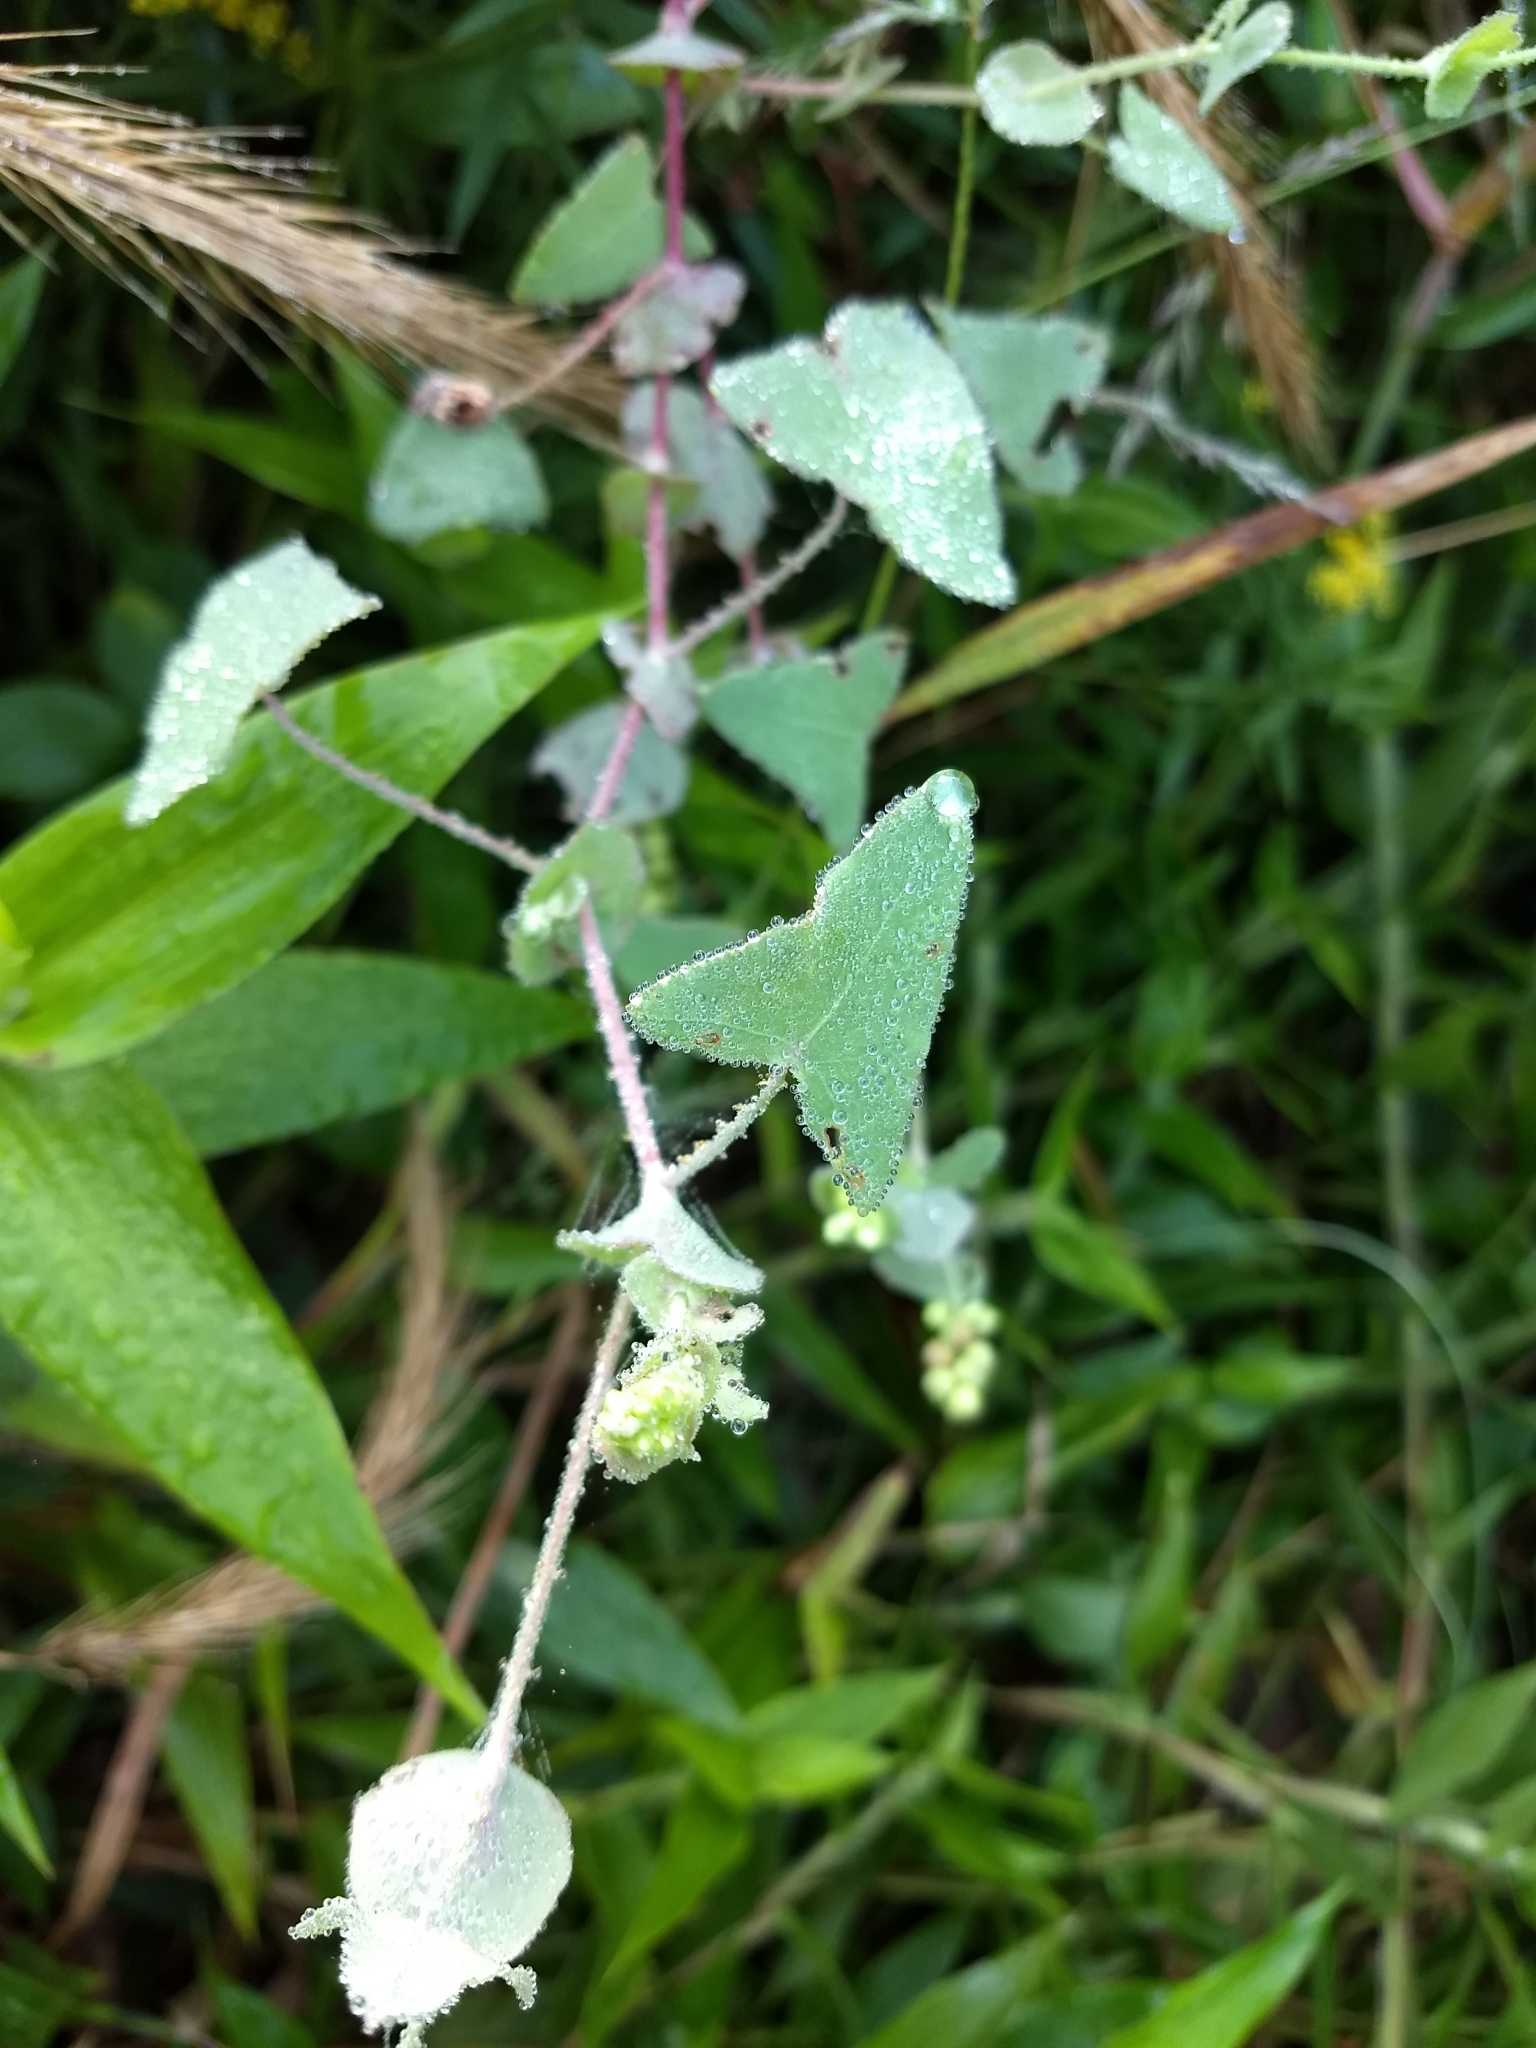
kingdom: Plantae
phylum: Tracheophyta
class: Magnoliopsida
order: Caryophyllales
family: Polygonaceae
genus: Persicaria
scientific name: Persicaria perfoliata
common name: Asiatic tearthumb
